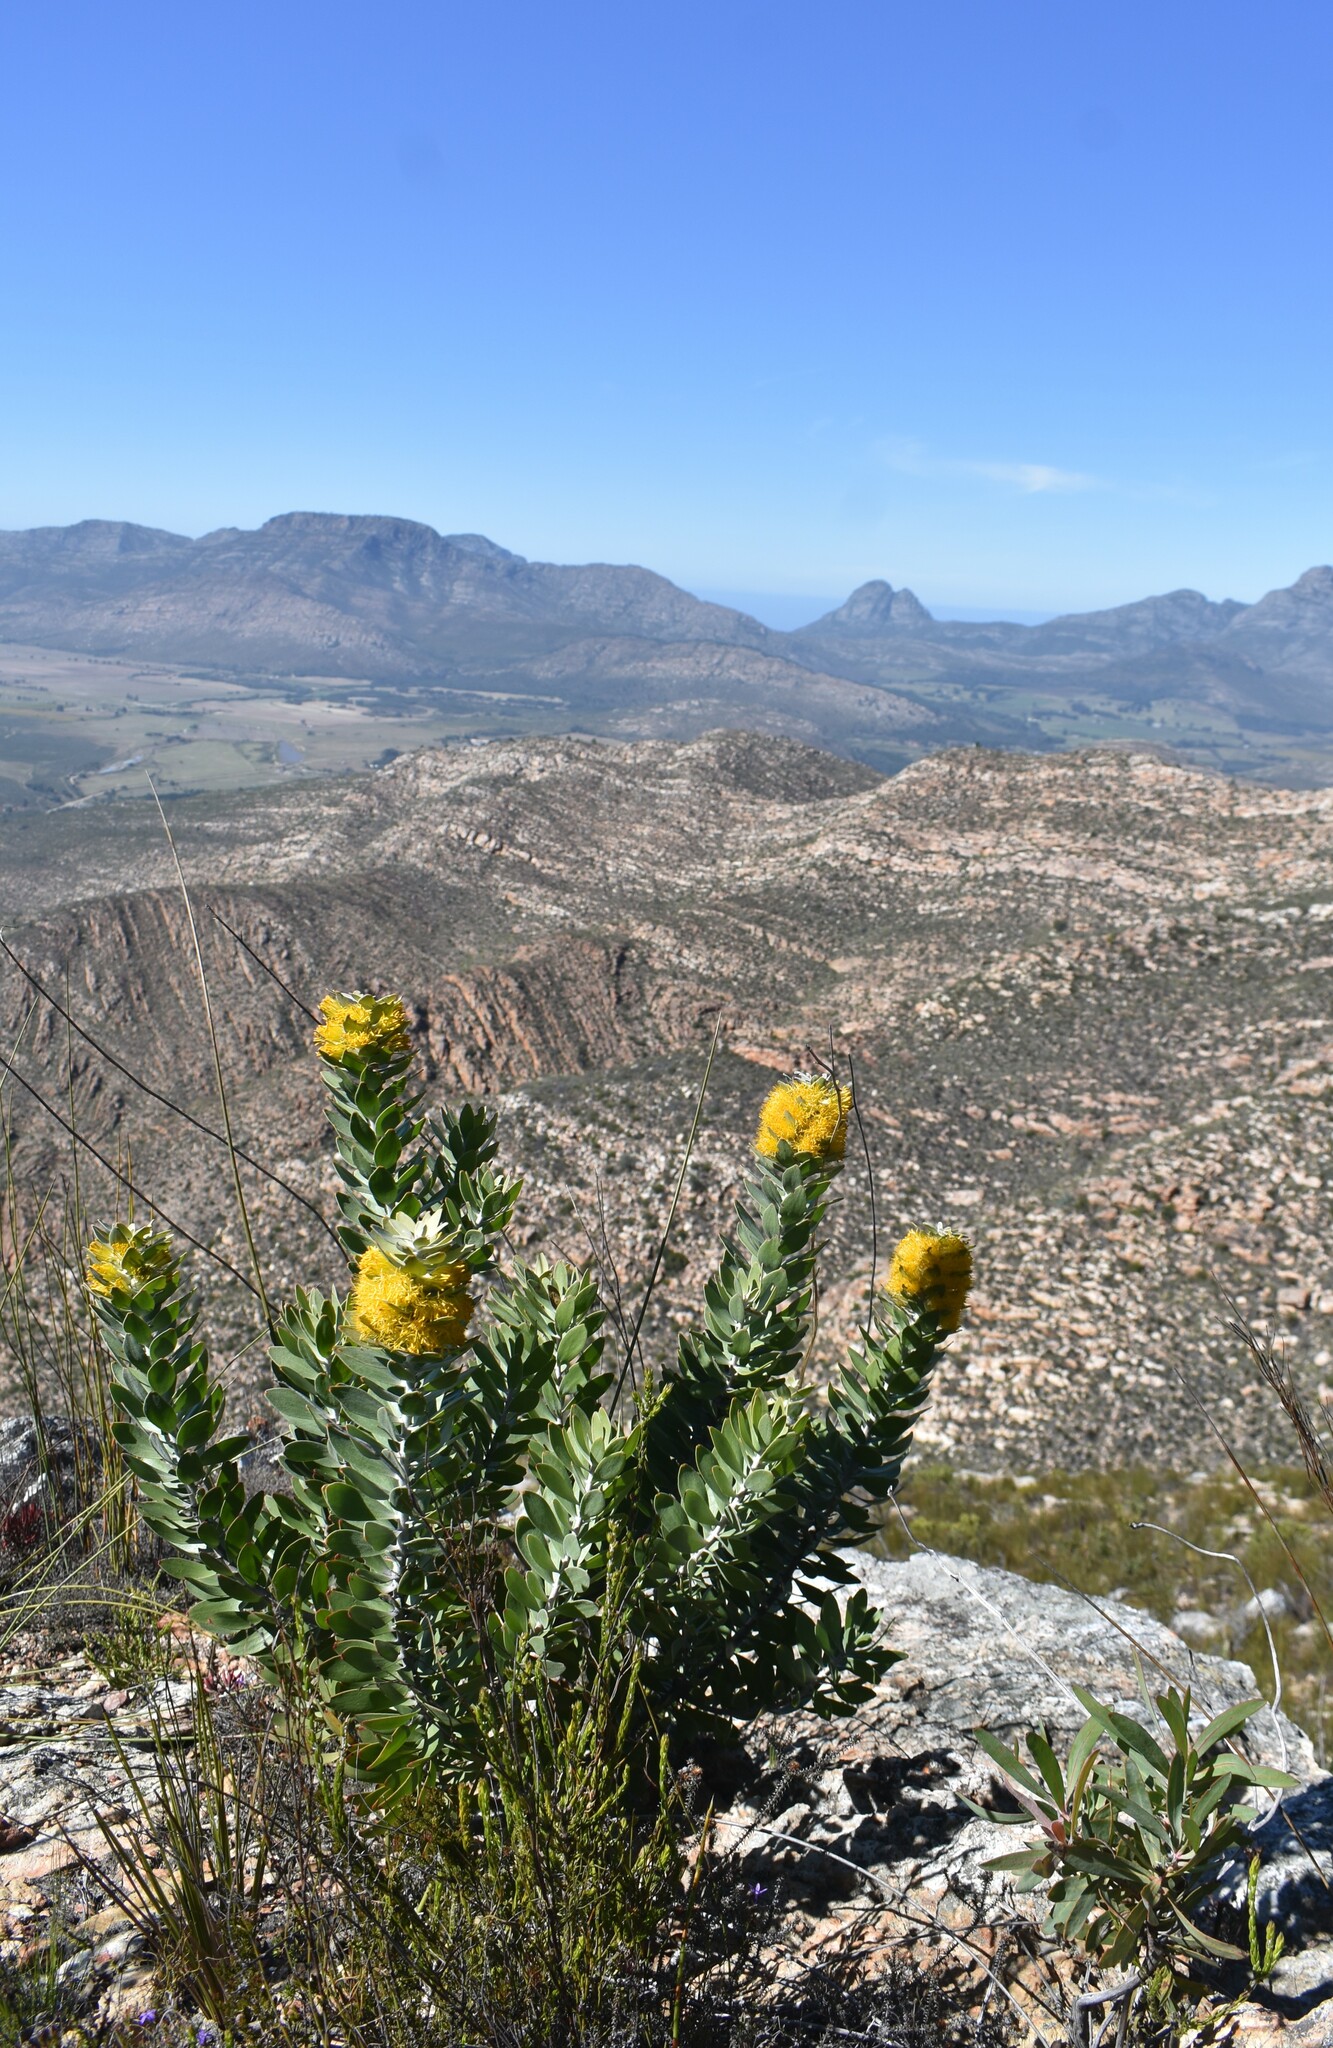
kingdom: Plantae
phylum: Tracheophyta
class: Magnoliopsida
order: Proteales
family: Proteaceae
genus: Mimetes
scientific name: Mimetes chrysanthus
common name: Golden pagoda
